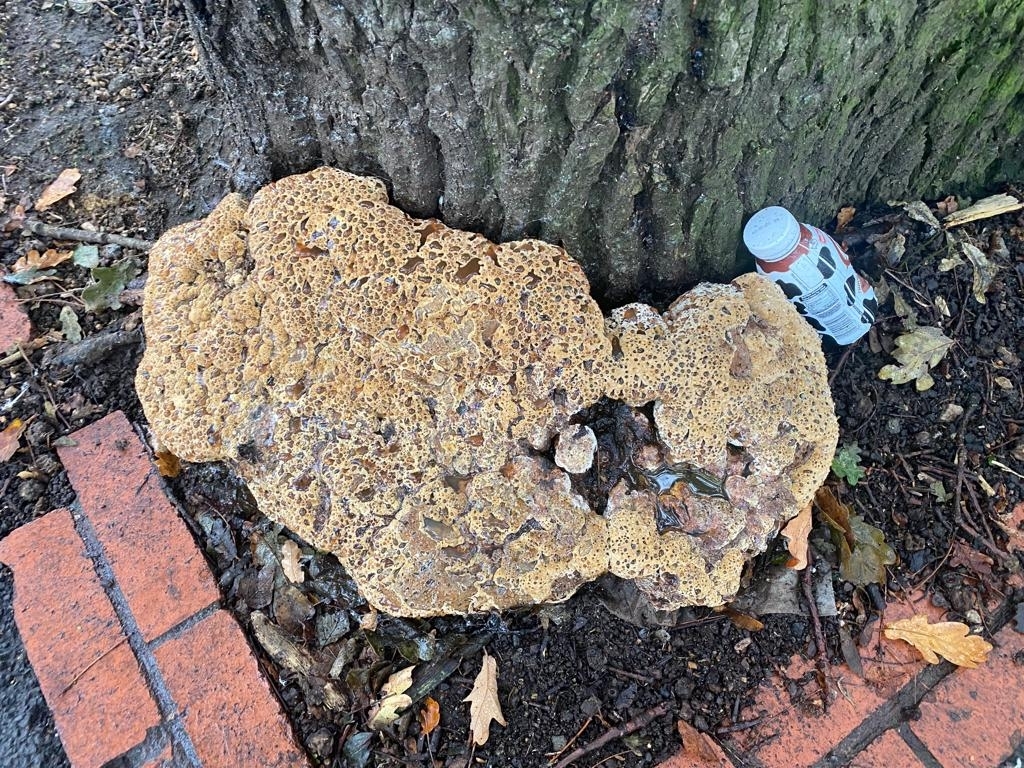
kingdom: Fungi
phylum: Basidiomycota
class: Agaricomycetes
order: Hymenochaetales
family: Hymenochaetaceae
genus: Pseudoinonotus
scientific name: Pseudoinonotus dryadeus
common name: Oak bracket
